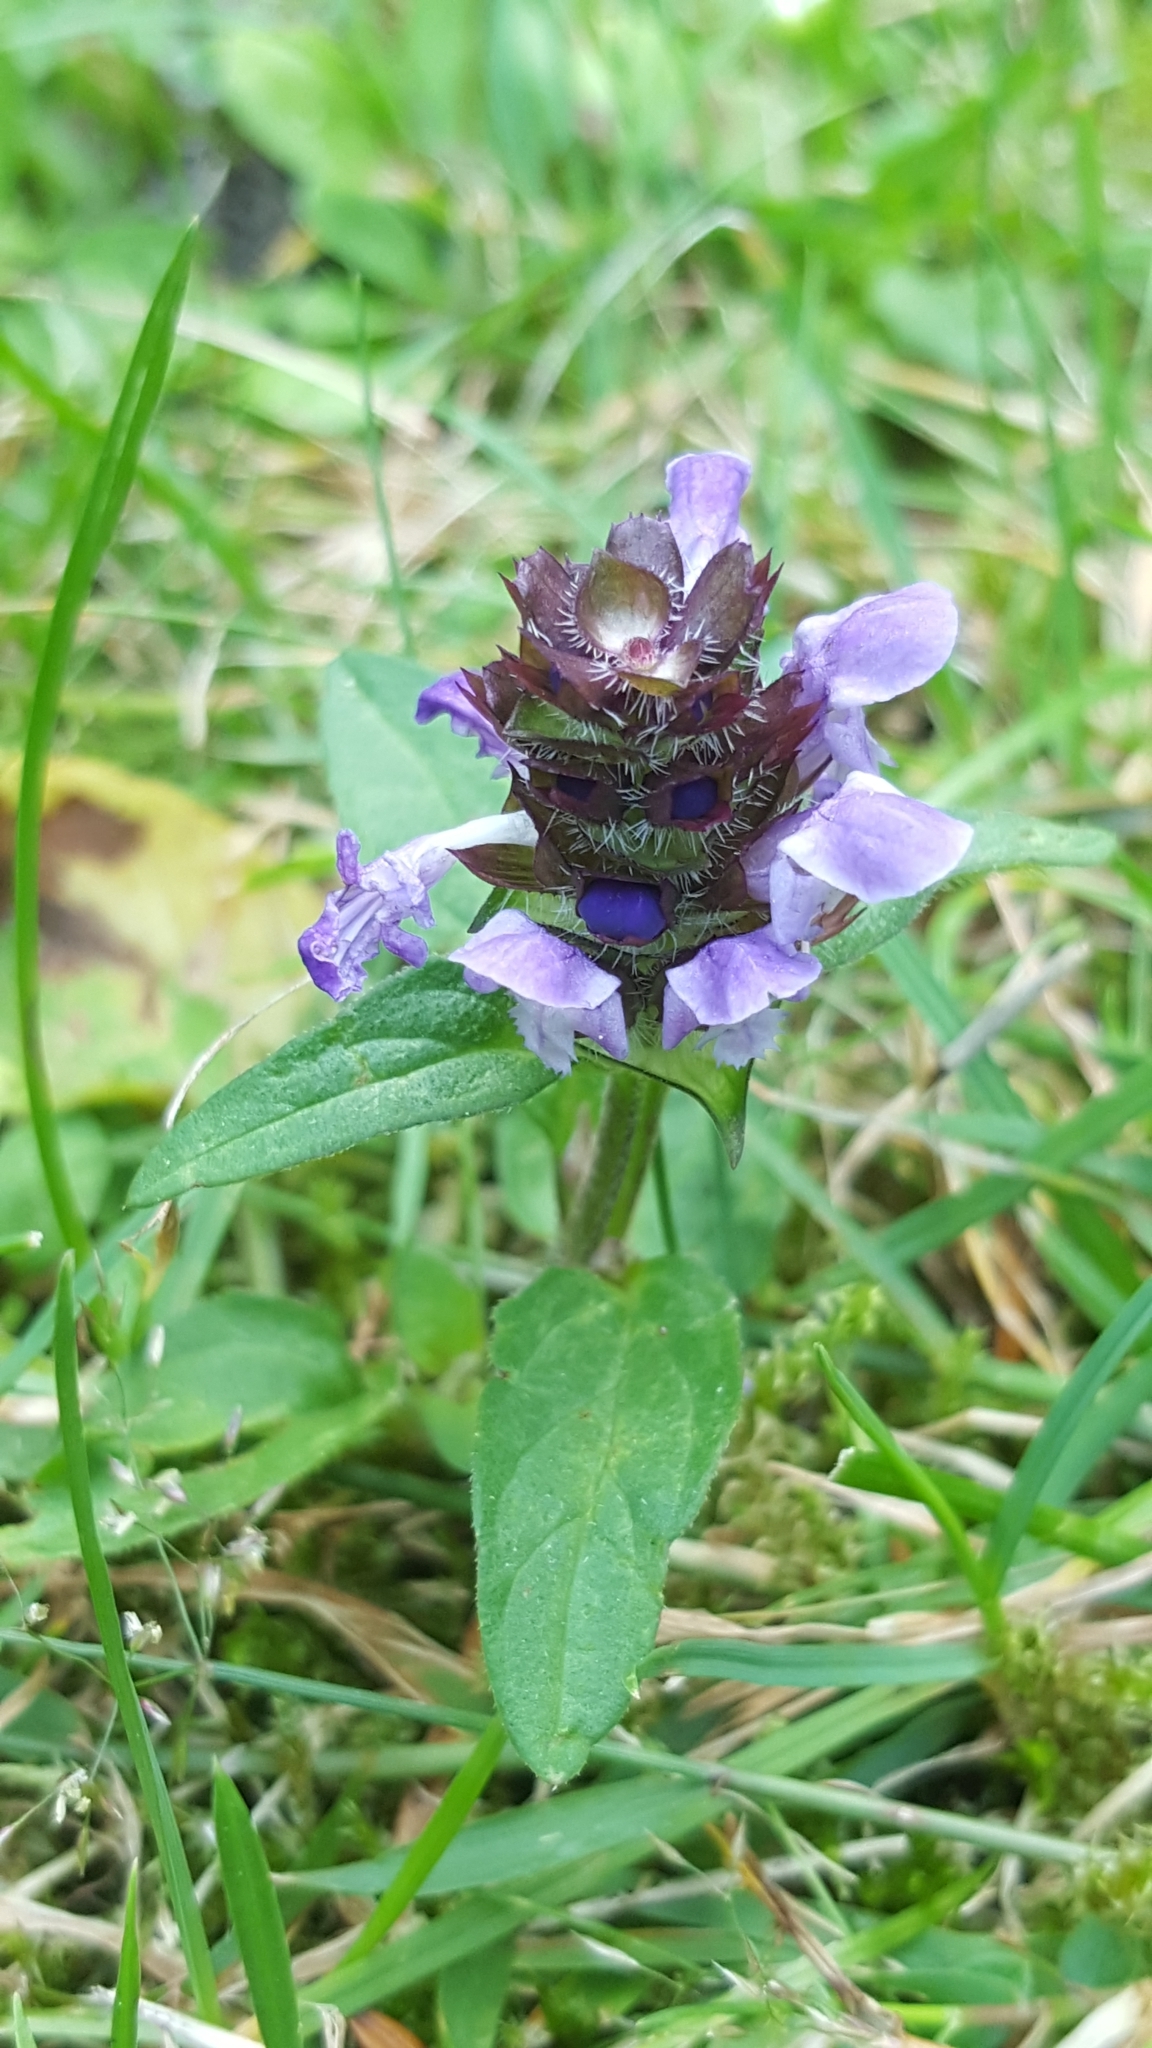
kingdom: Plantae
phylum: Tracheophyta
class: Magnoliopsida
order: Lamiales
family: Lamiaceae
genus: Prunella
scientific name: Prunella vulgaris
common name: Heal-all
